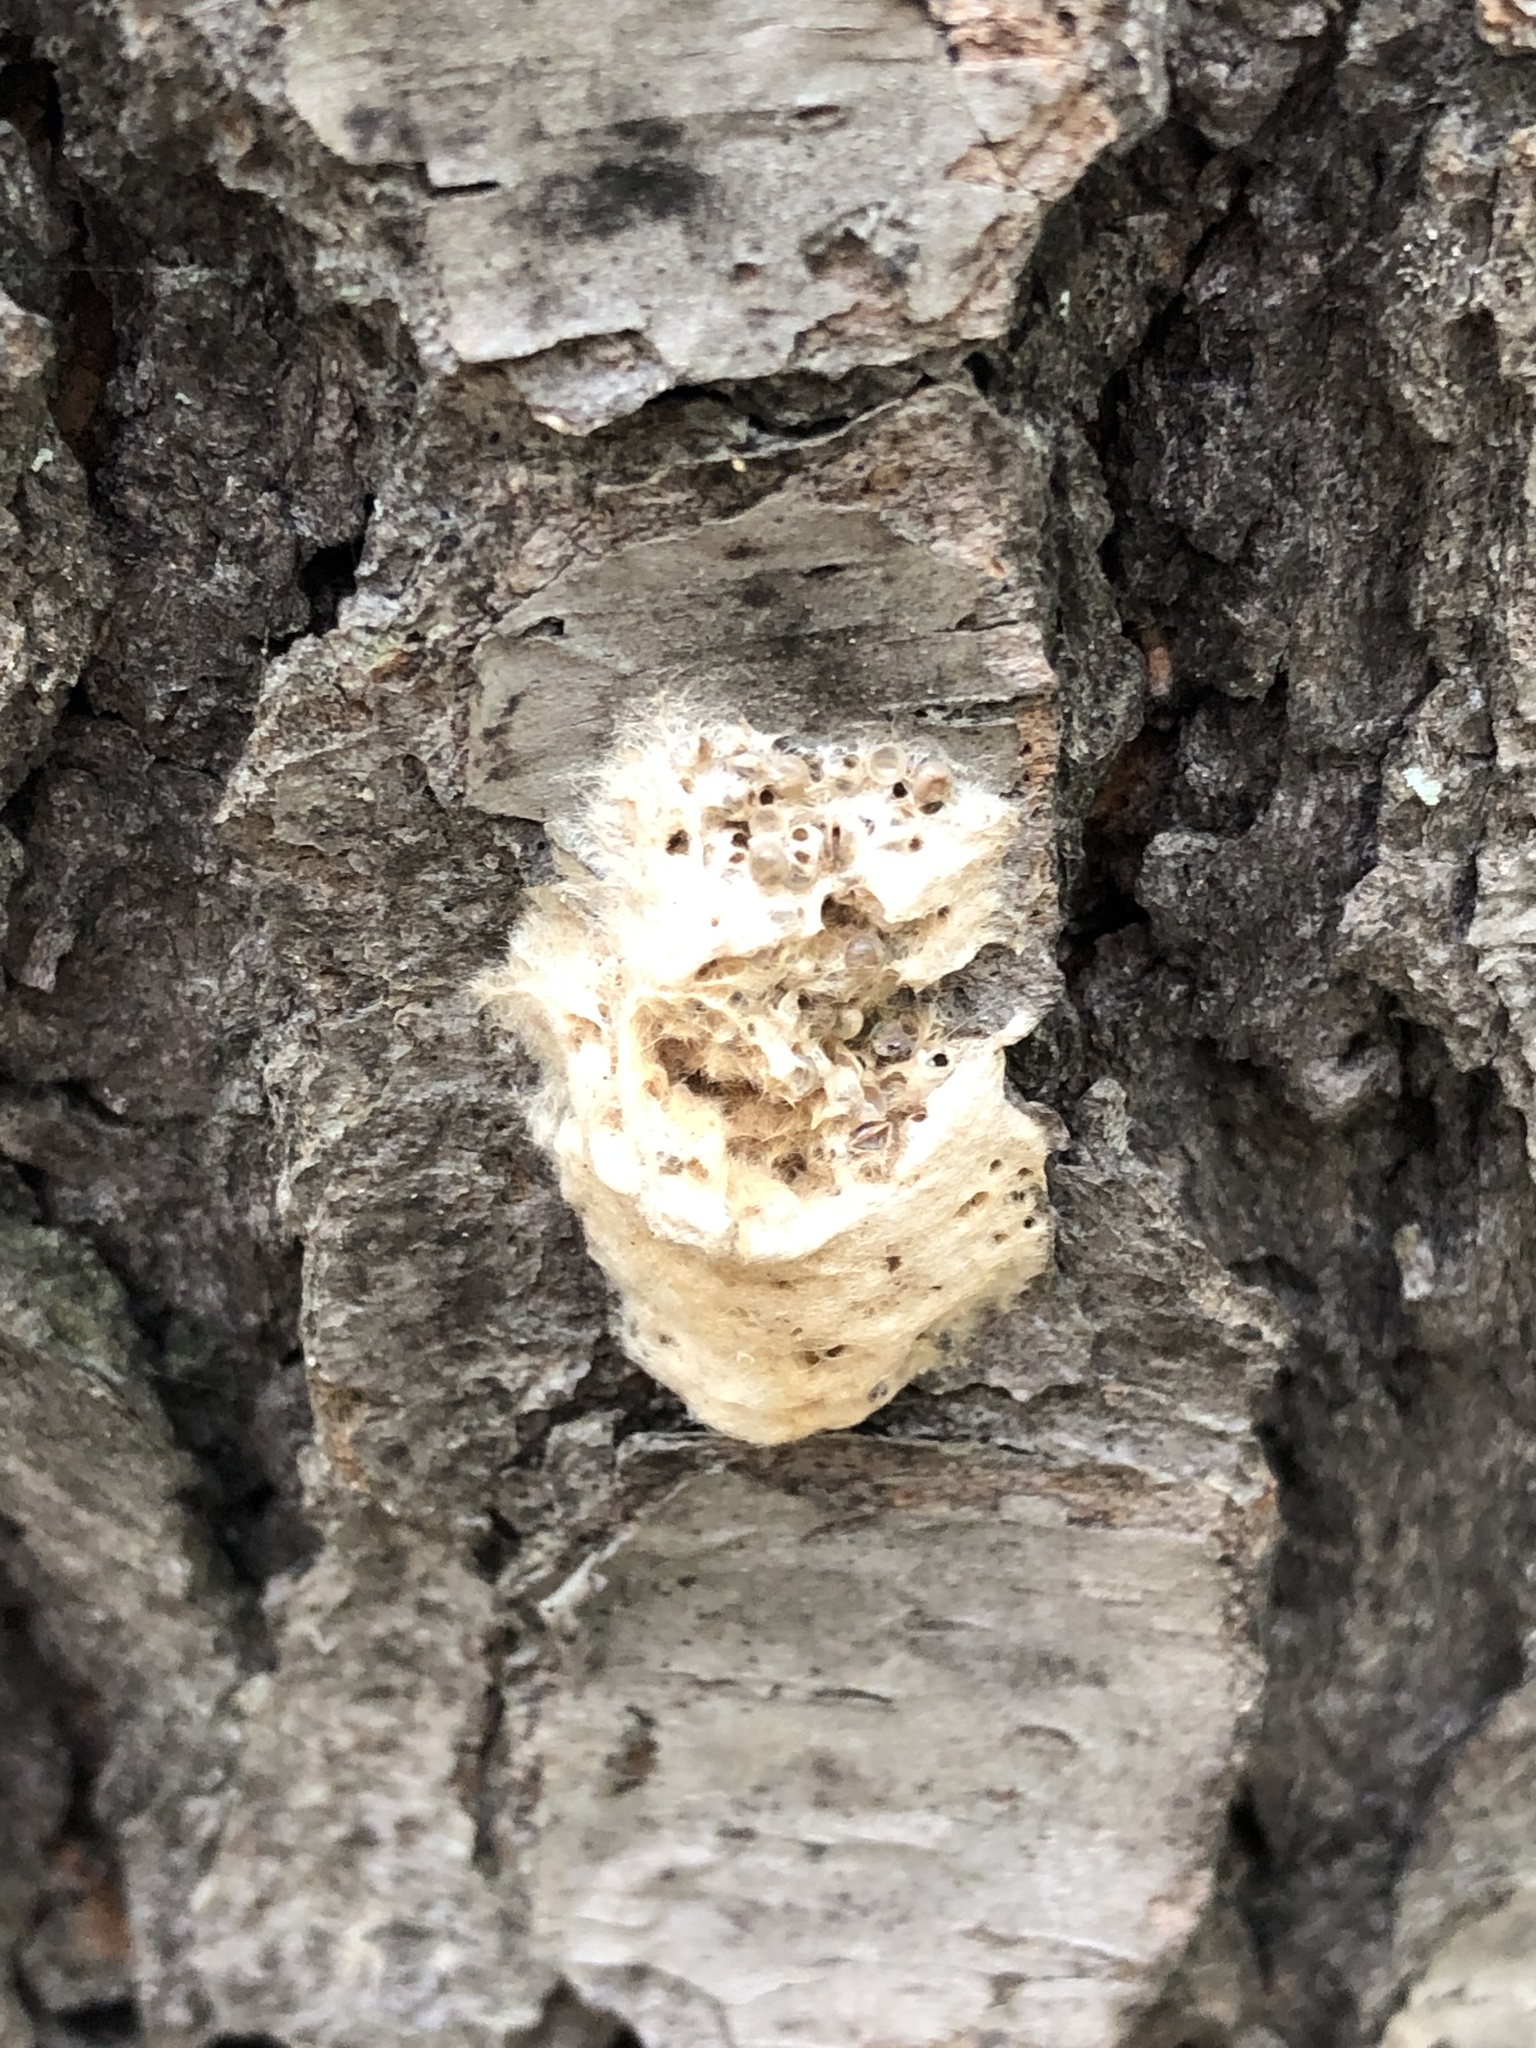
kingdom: Animalia
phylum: Arthropoda
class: Insecta
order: Lepidoptera
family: Erebidae
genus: Lymantria
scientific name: Lymantria dispar
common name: Gypsy moth
